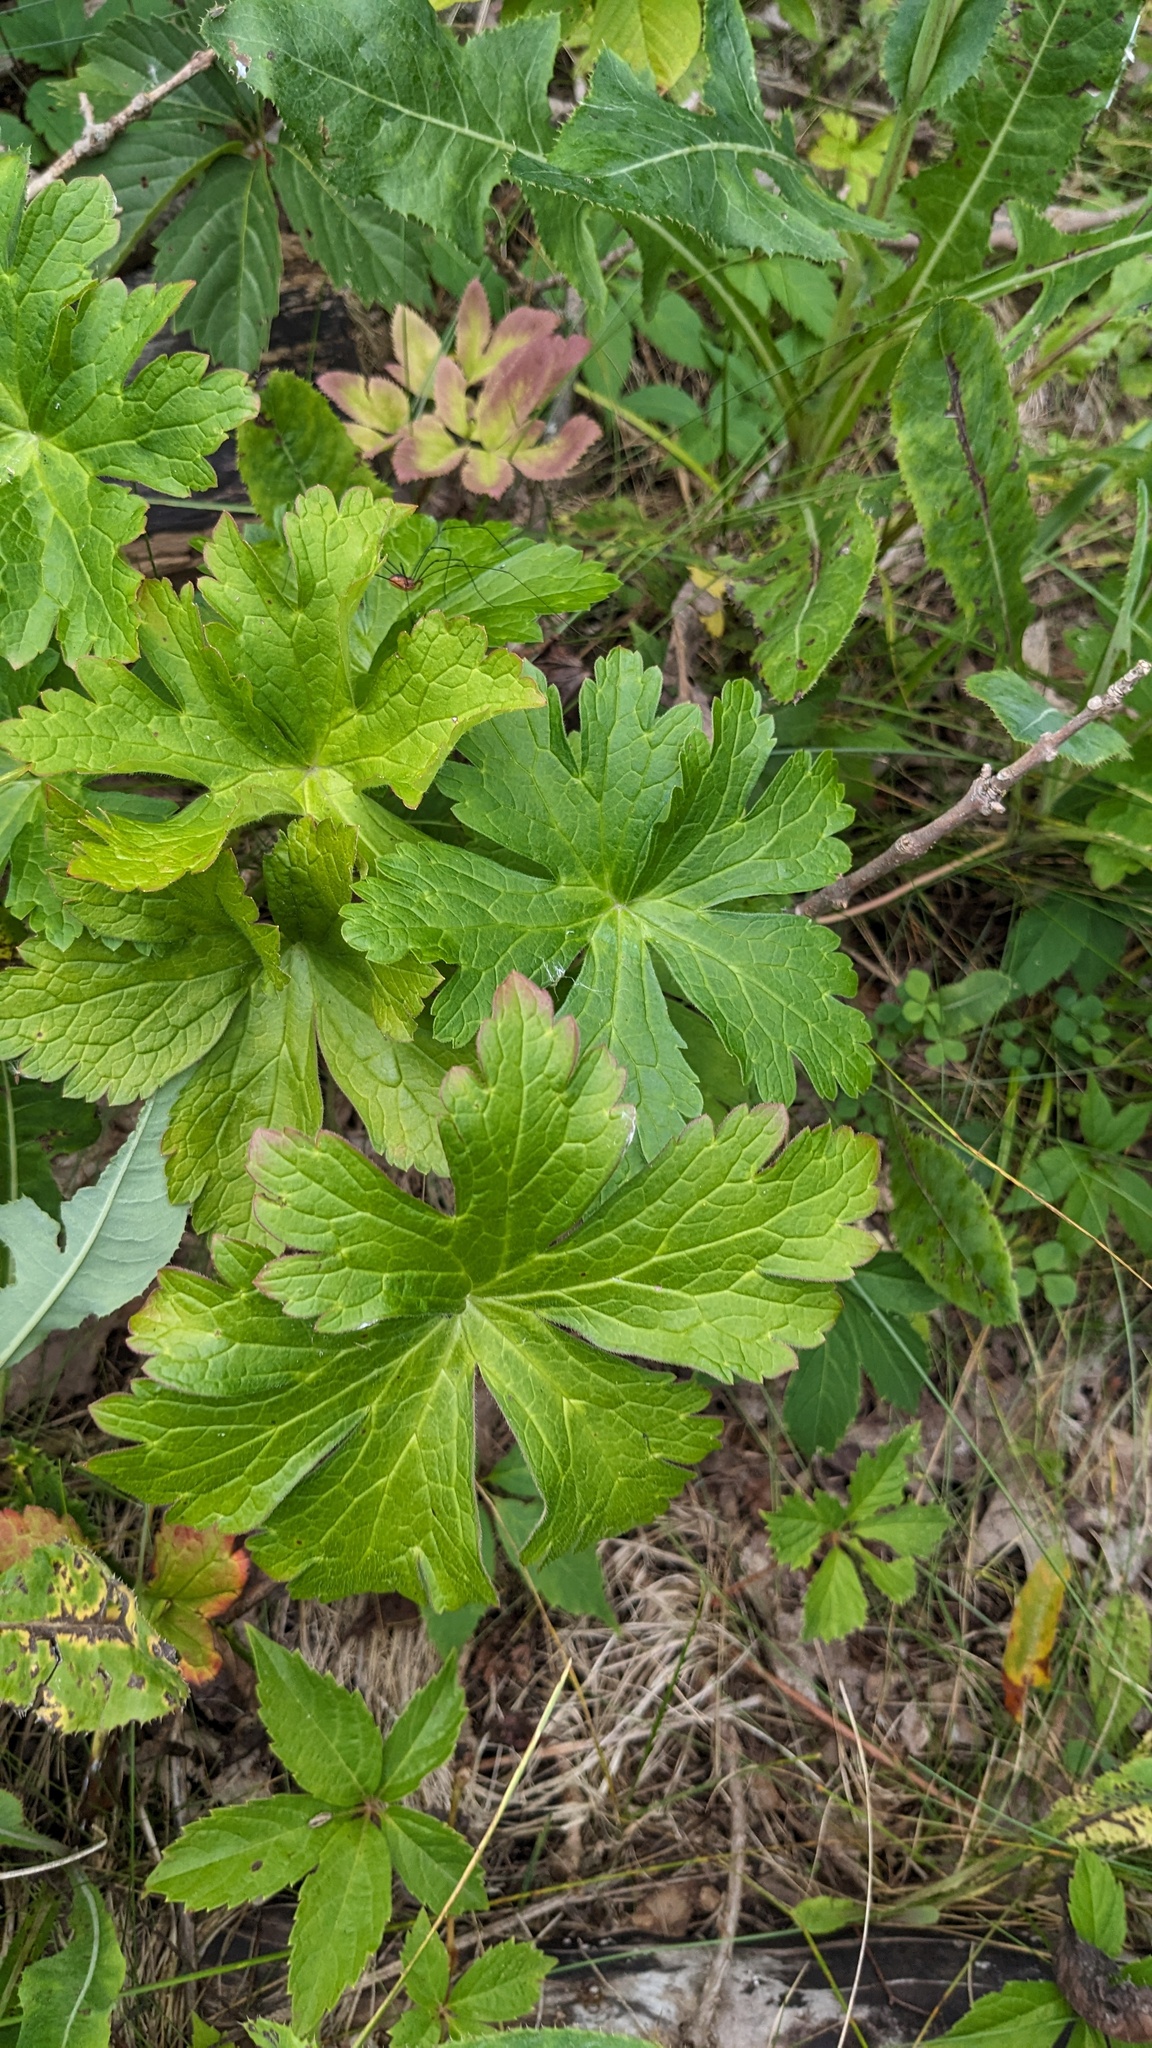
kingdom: Plantae
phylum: Tracheophyta
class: Magnoliopsida
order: Geraniales
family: Geraniaceae
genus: Geranium
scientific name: Geranium maculatum
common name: Spotted geranium
